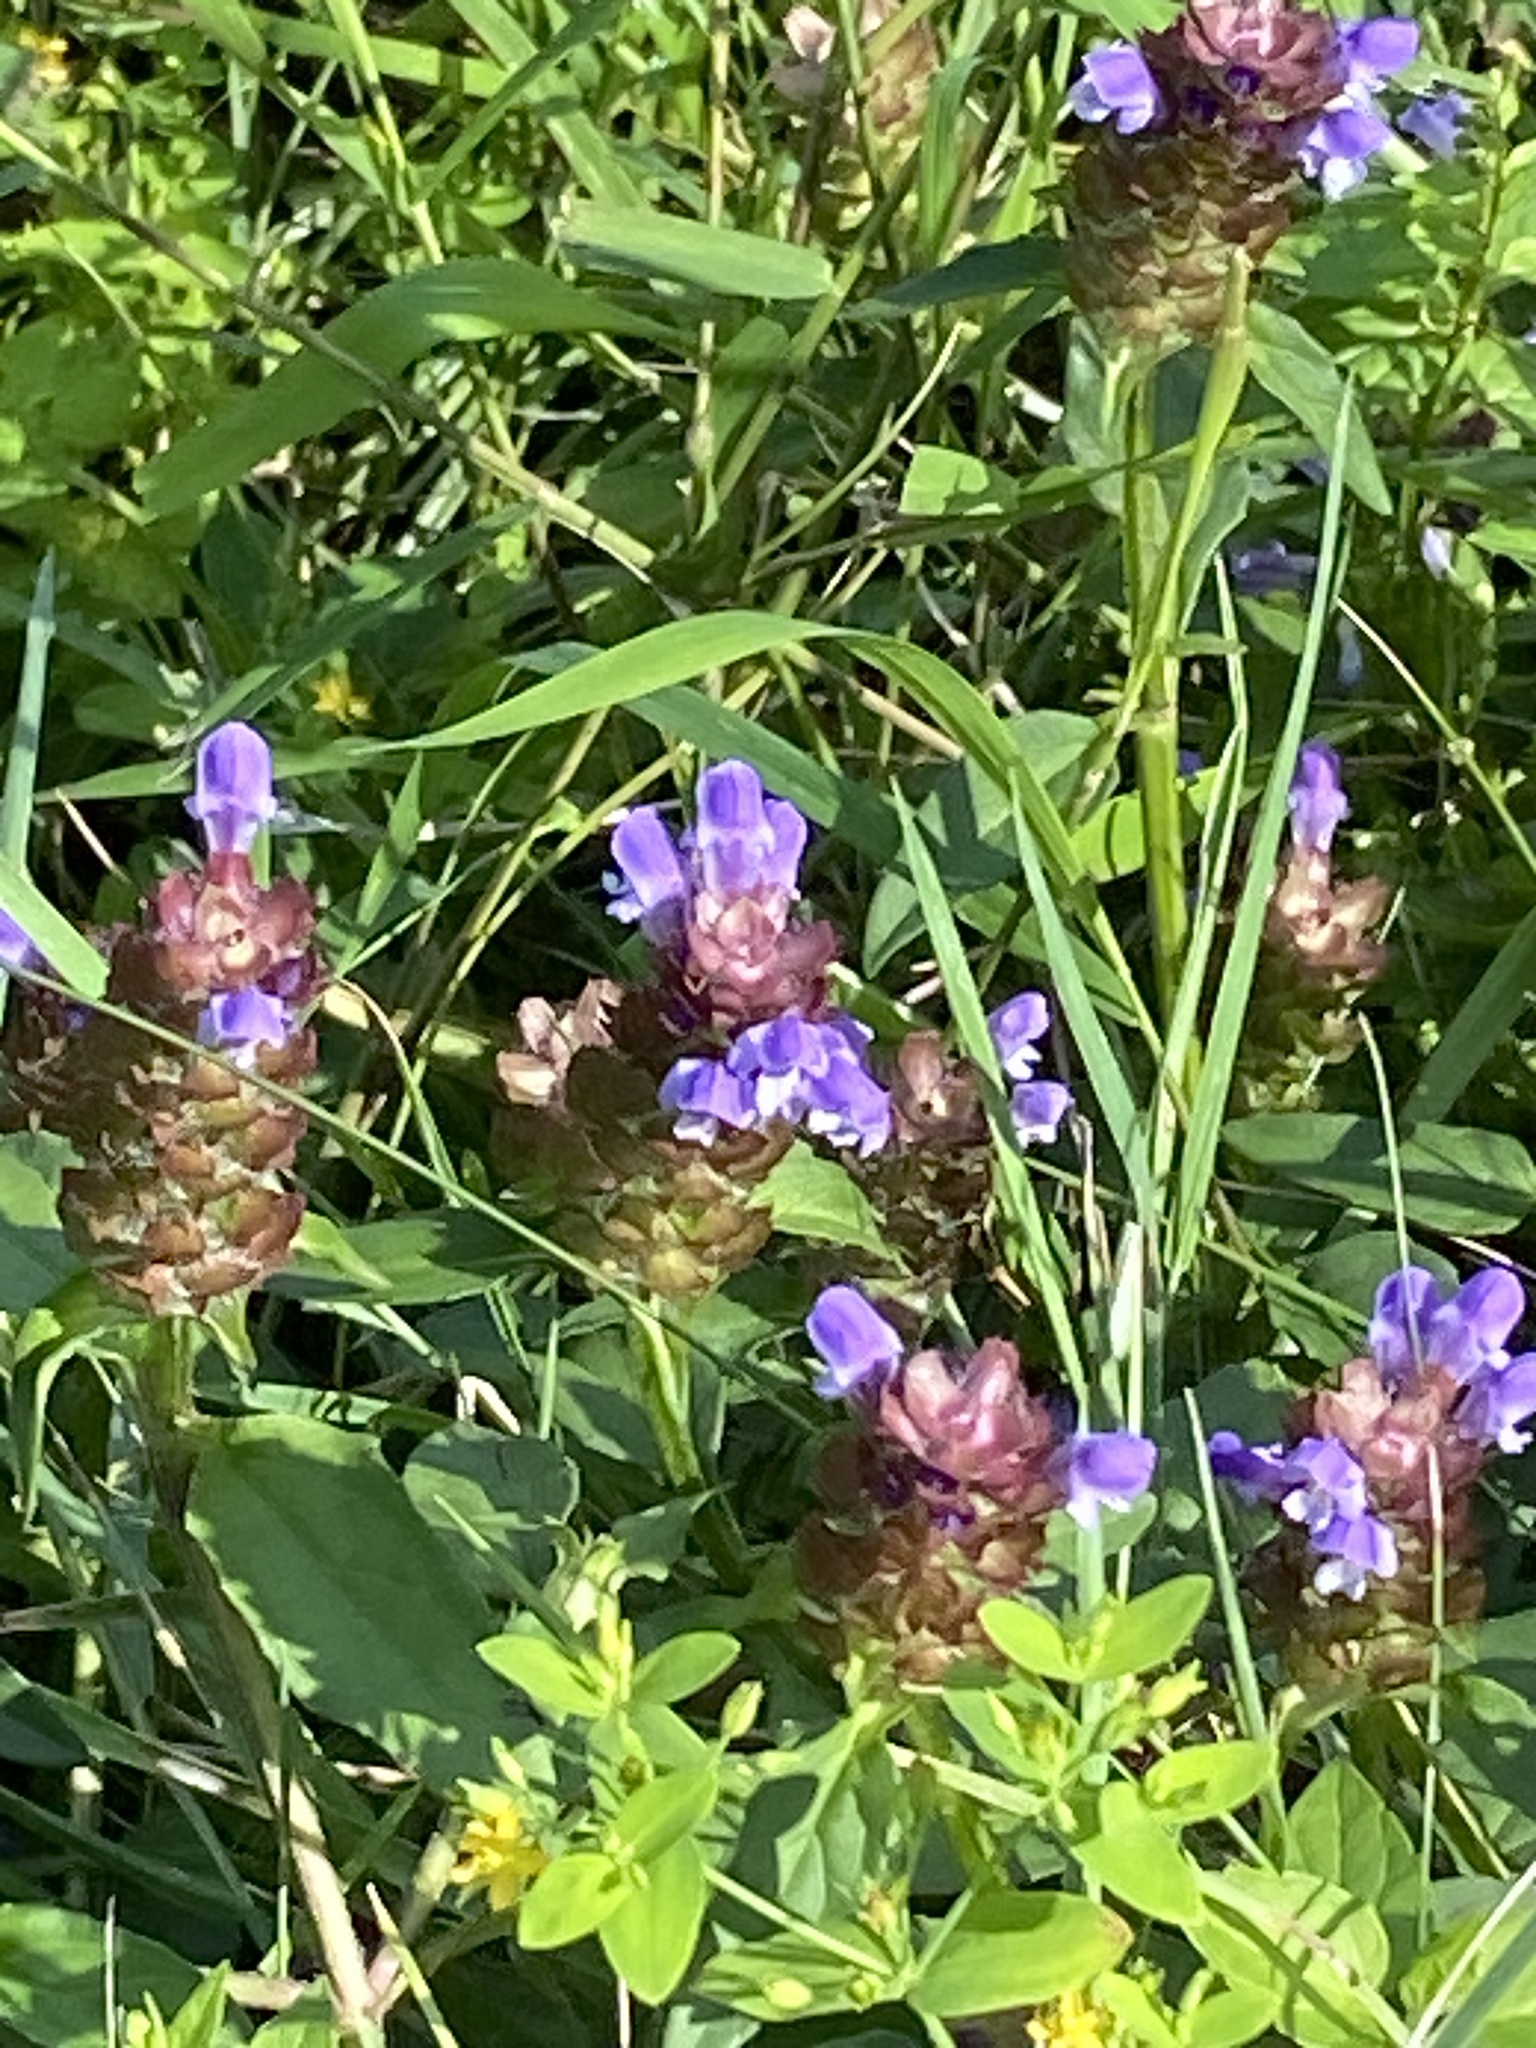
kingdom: Plantae
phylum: Tracheophyta
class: Magnoliopsida
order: Lamiales
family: Lamiaceae
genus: Prunella
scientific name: Prunella vulgaris
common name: Heal-all
